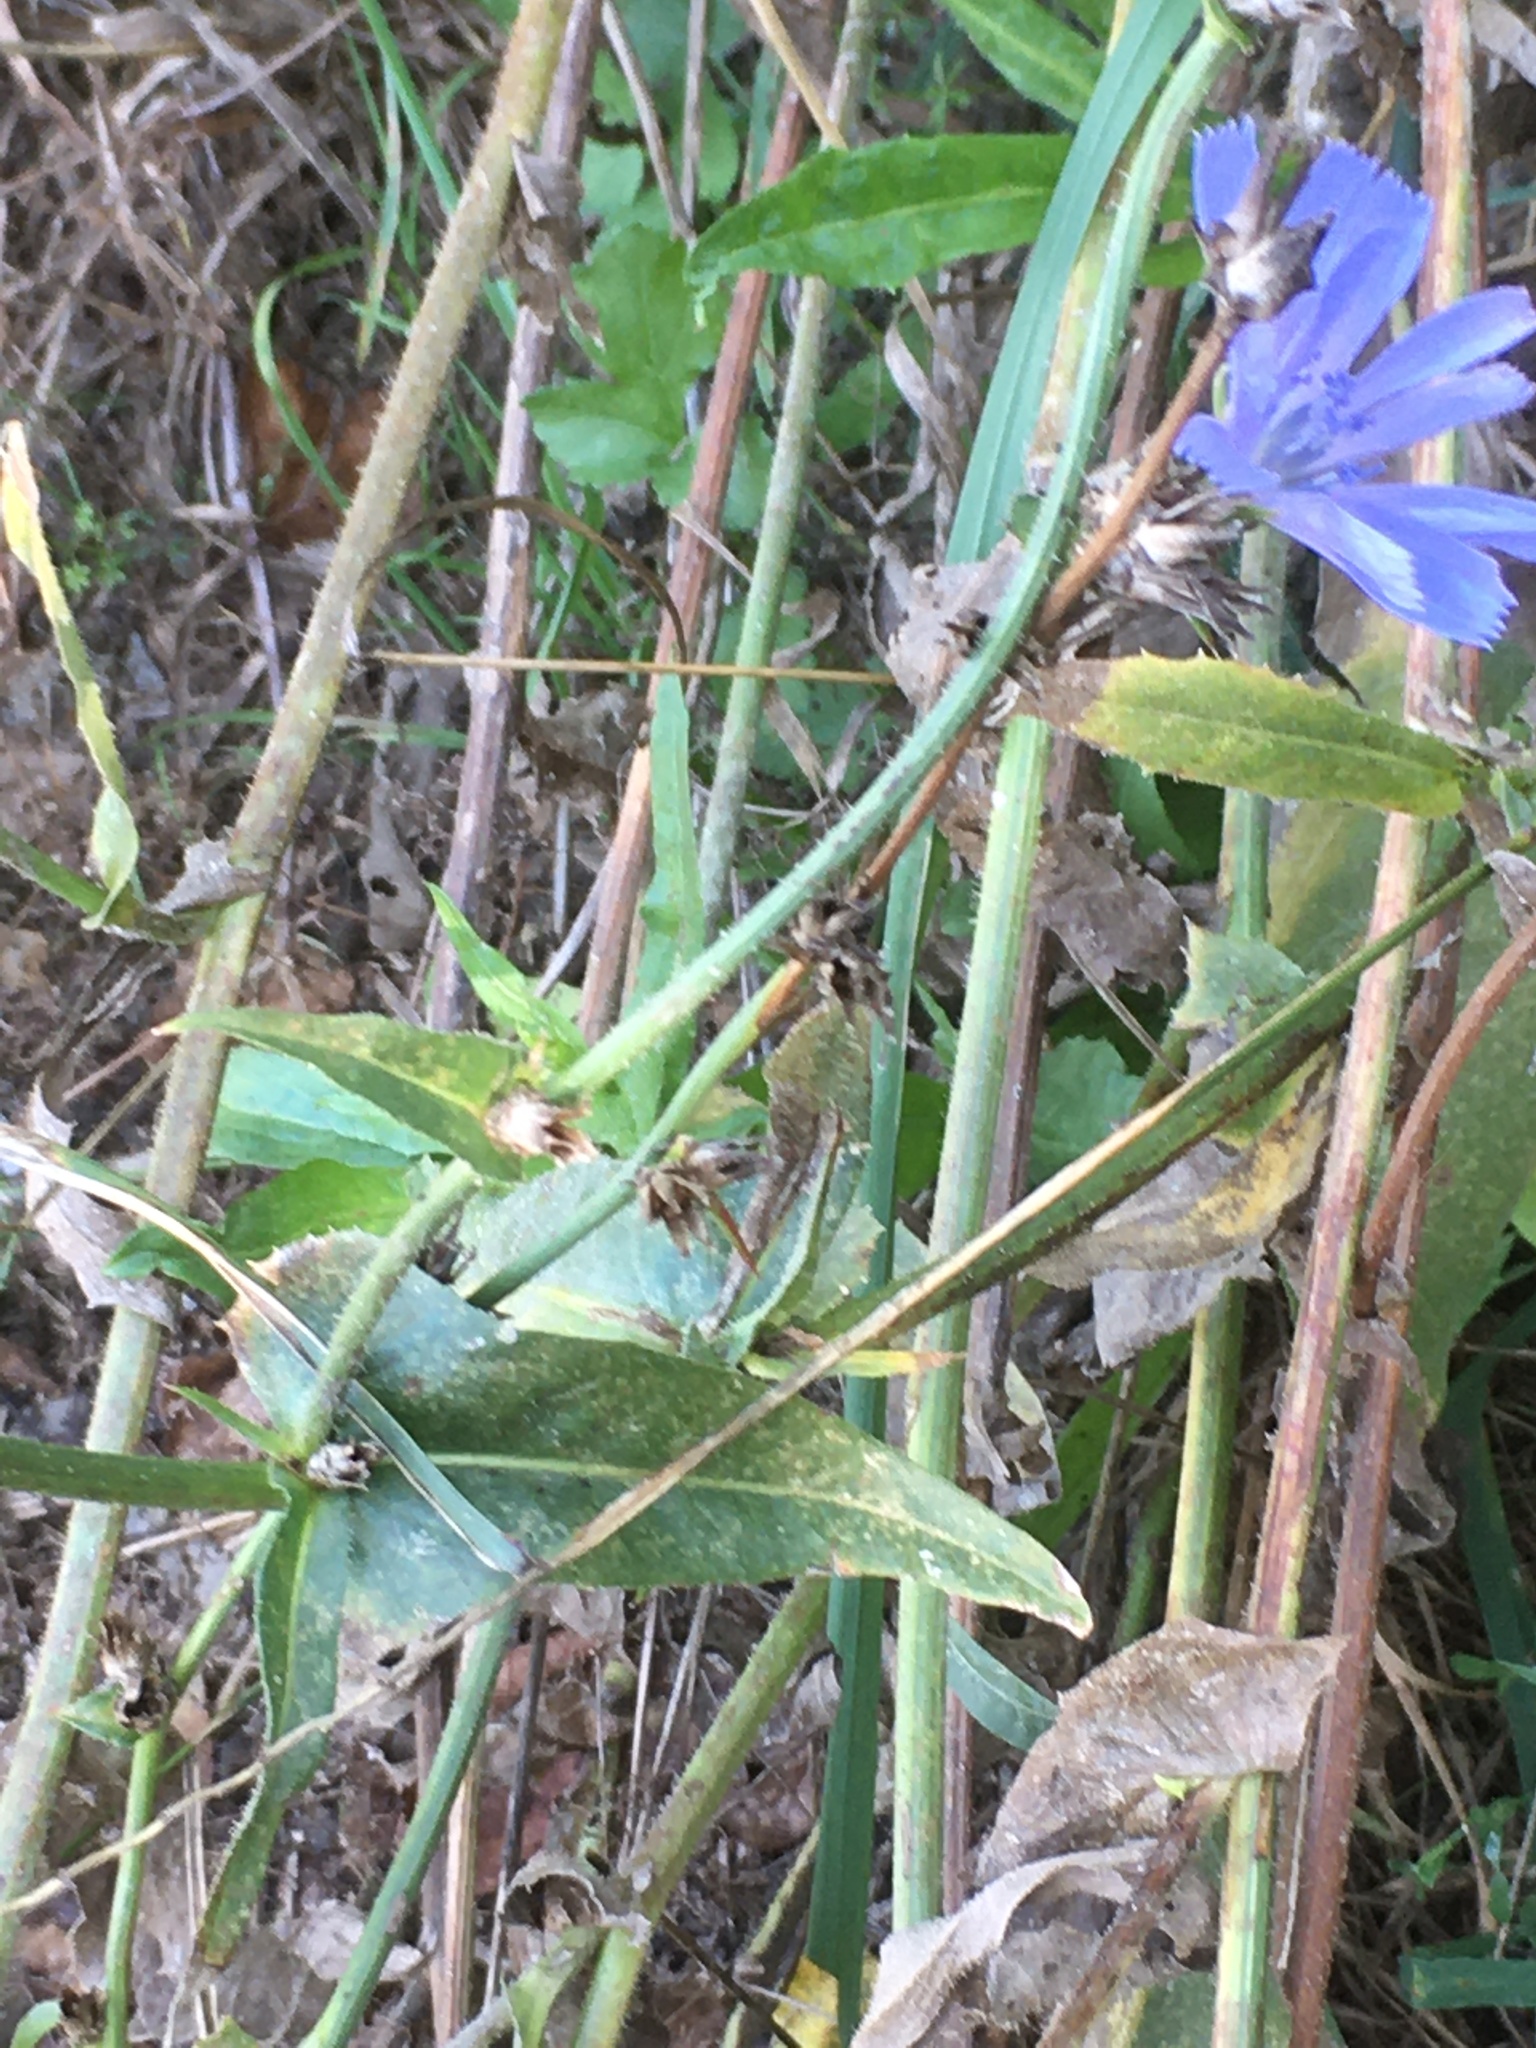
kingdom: Plantae
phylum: Tracheophyta
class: Magnoliopsida
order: Asterales
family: Asteraceae
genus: Cichorium
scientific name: Cichorium intybus
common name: Chicory
